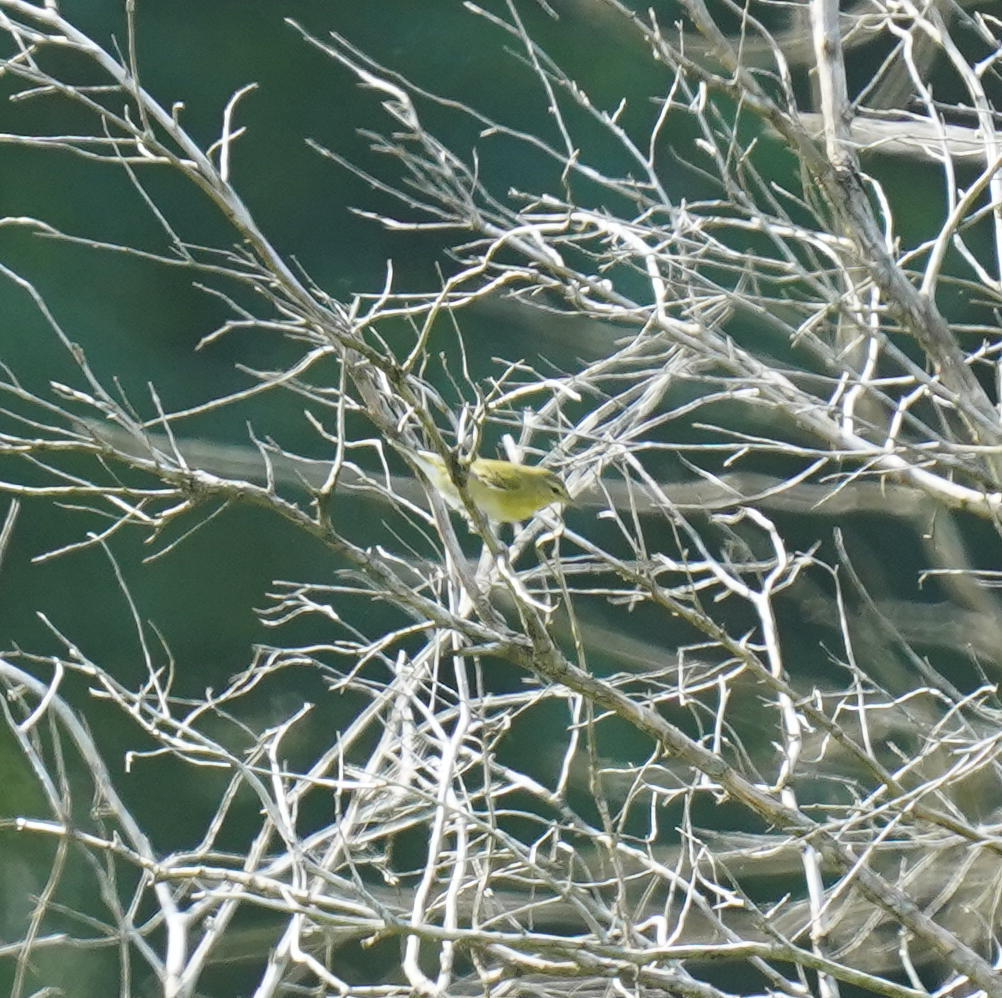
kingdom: Animalia
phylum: Chordata
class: Aves
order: Passeriformes
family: Parulidae
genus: Leiothlypis
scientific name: Leiothlypis peregrina
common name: Tennessee warbler
